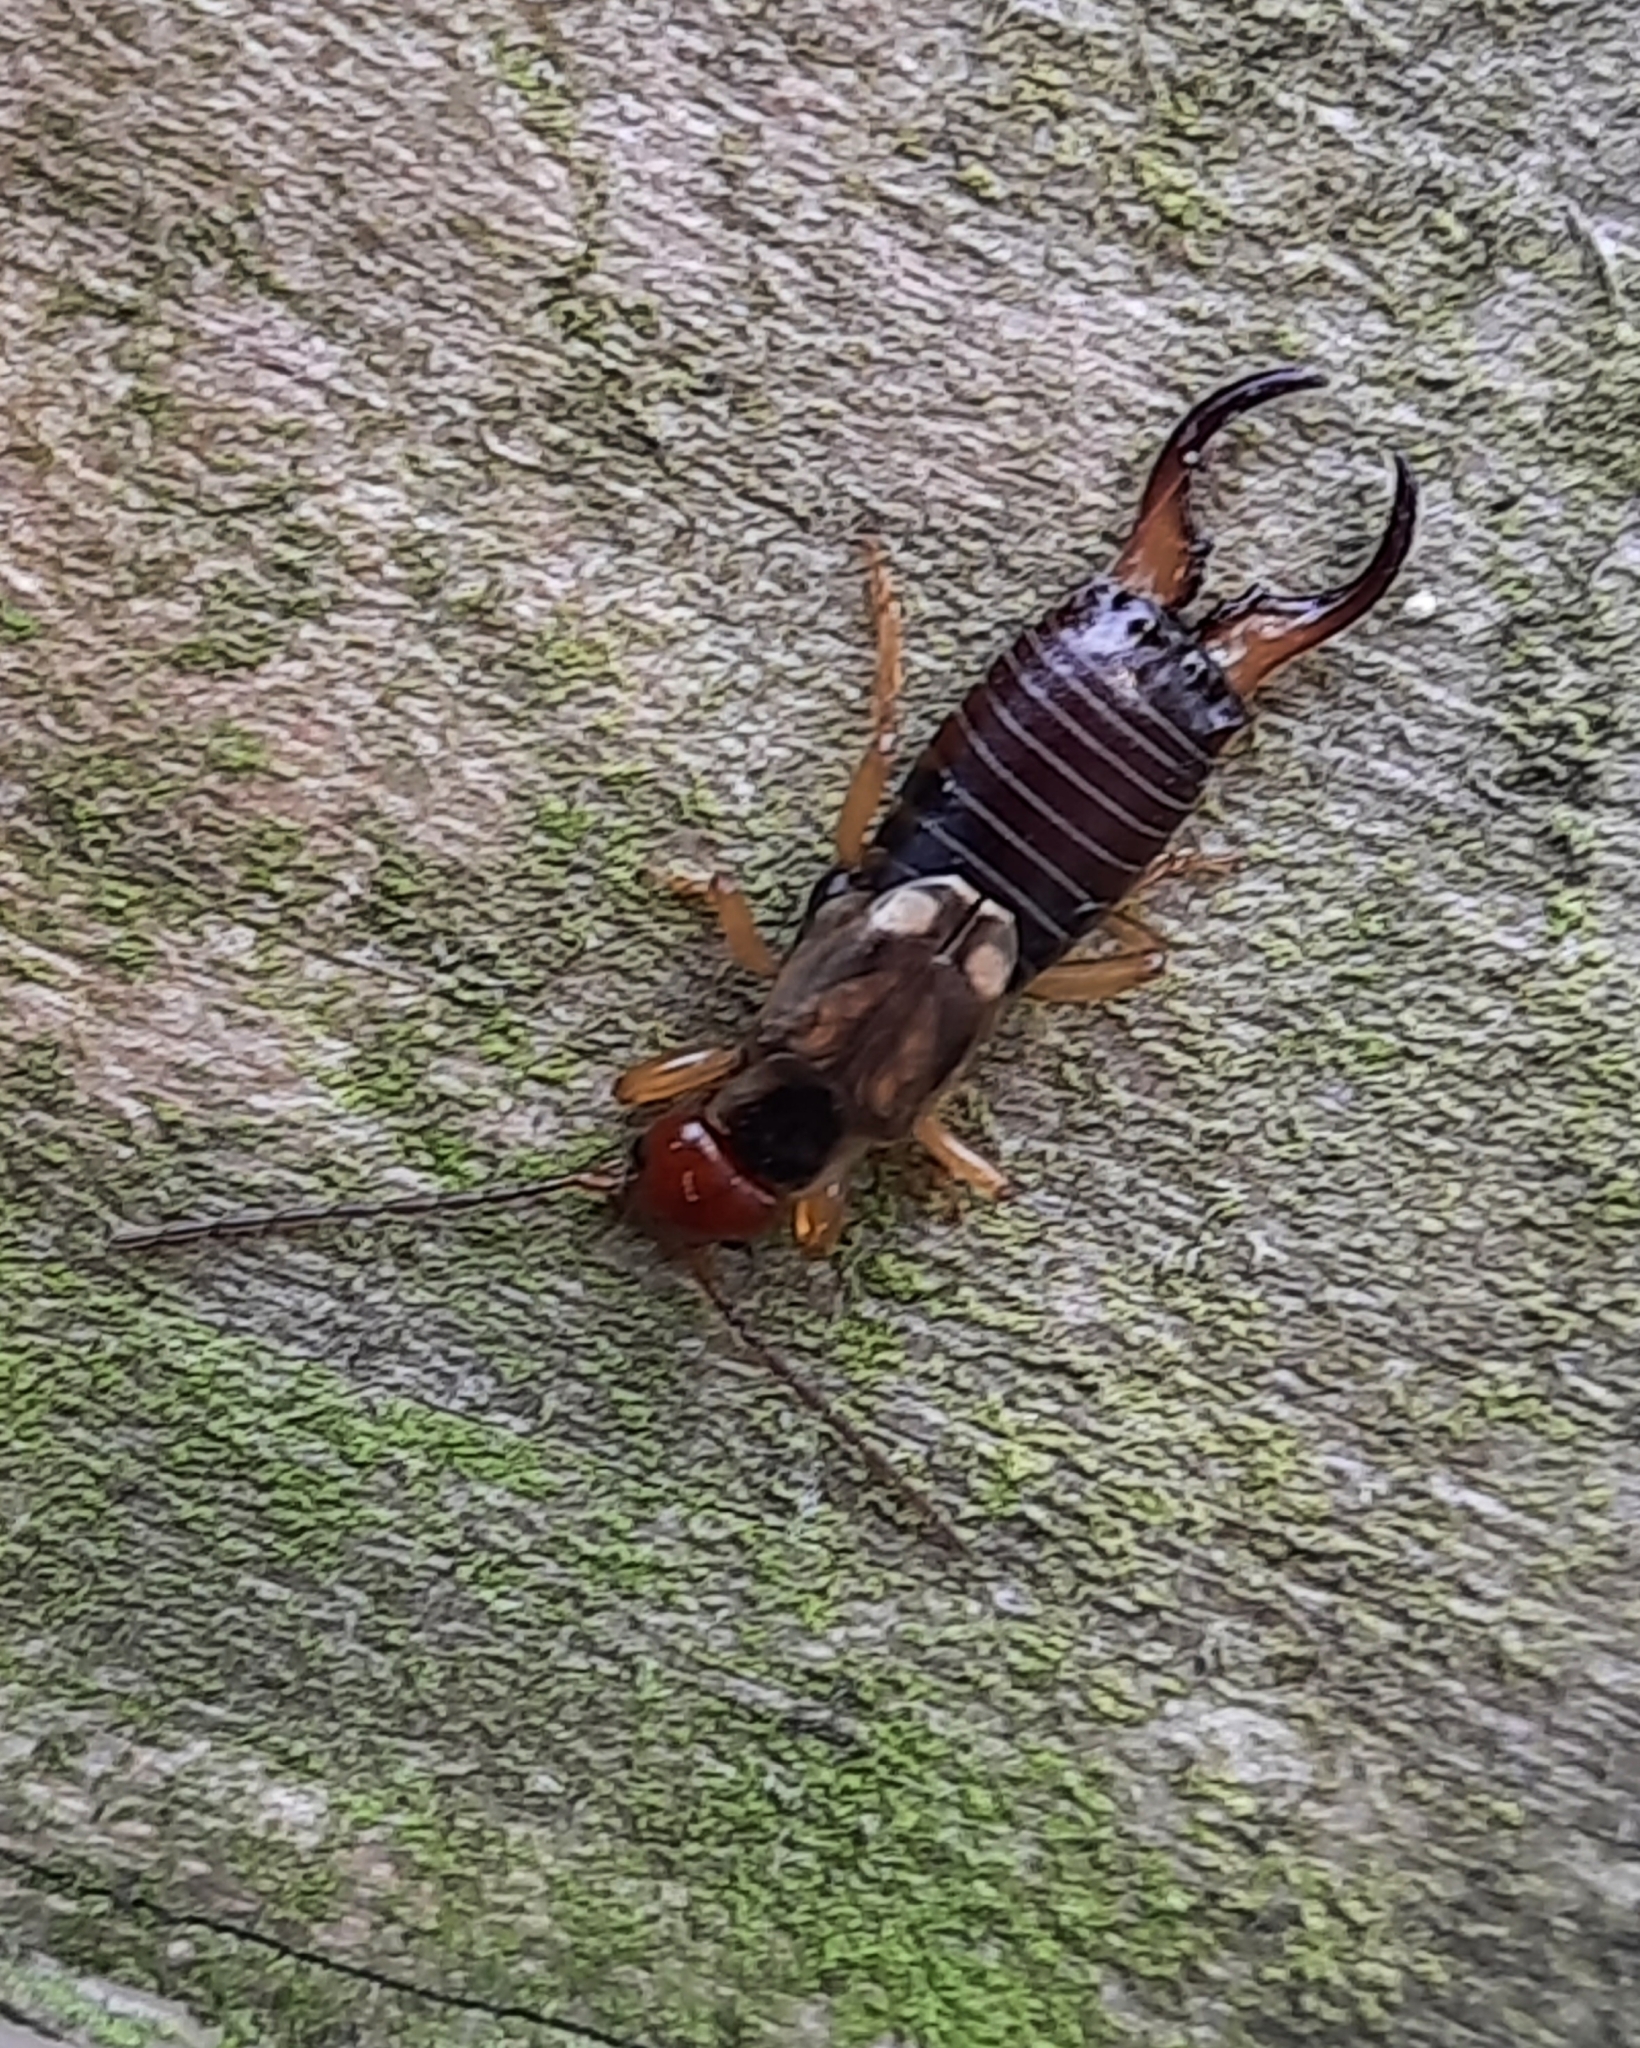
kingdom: Animalia
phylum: Arthropoda
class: Insecta
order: Dermaptera
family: Forficulidae
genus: Forficula
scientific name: Forficula
